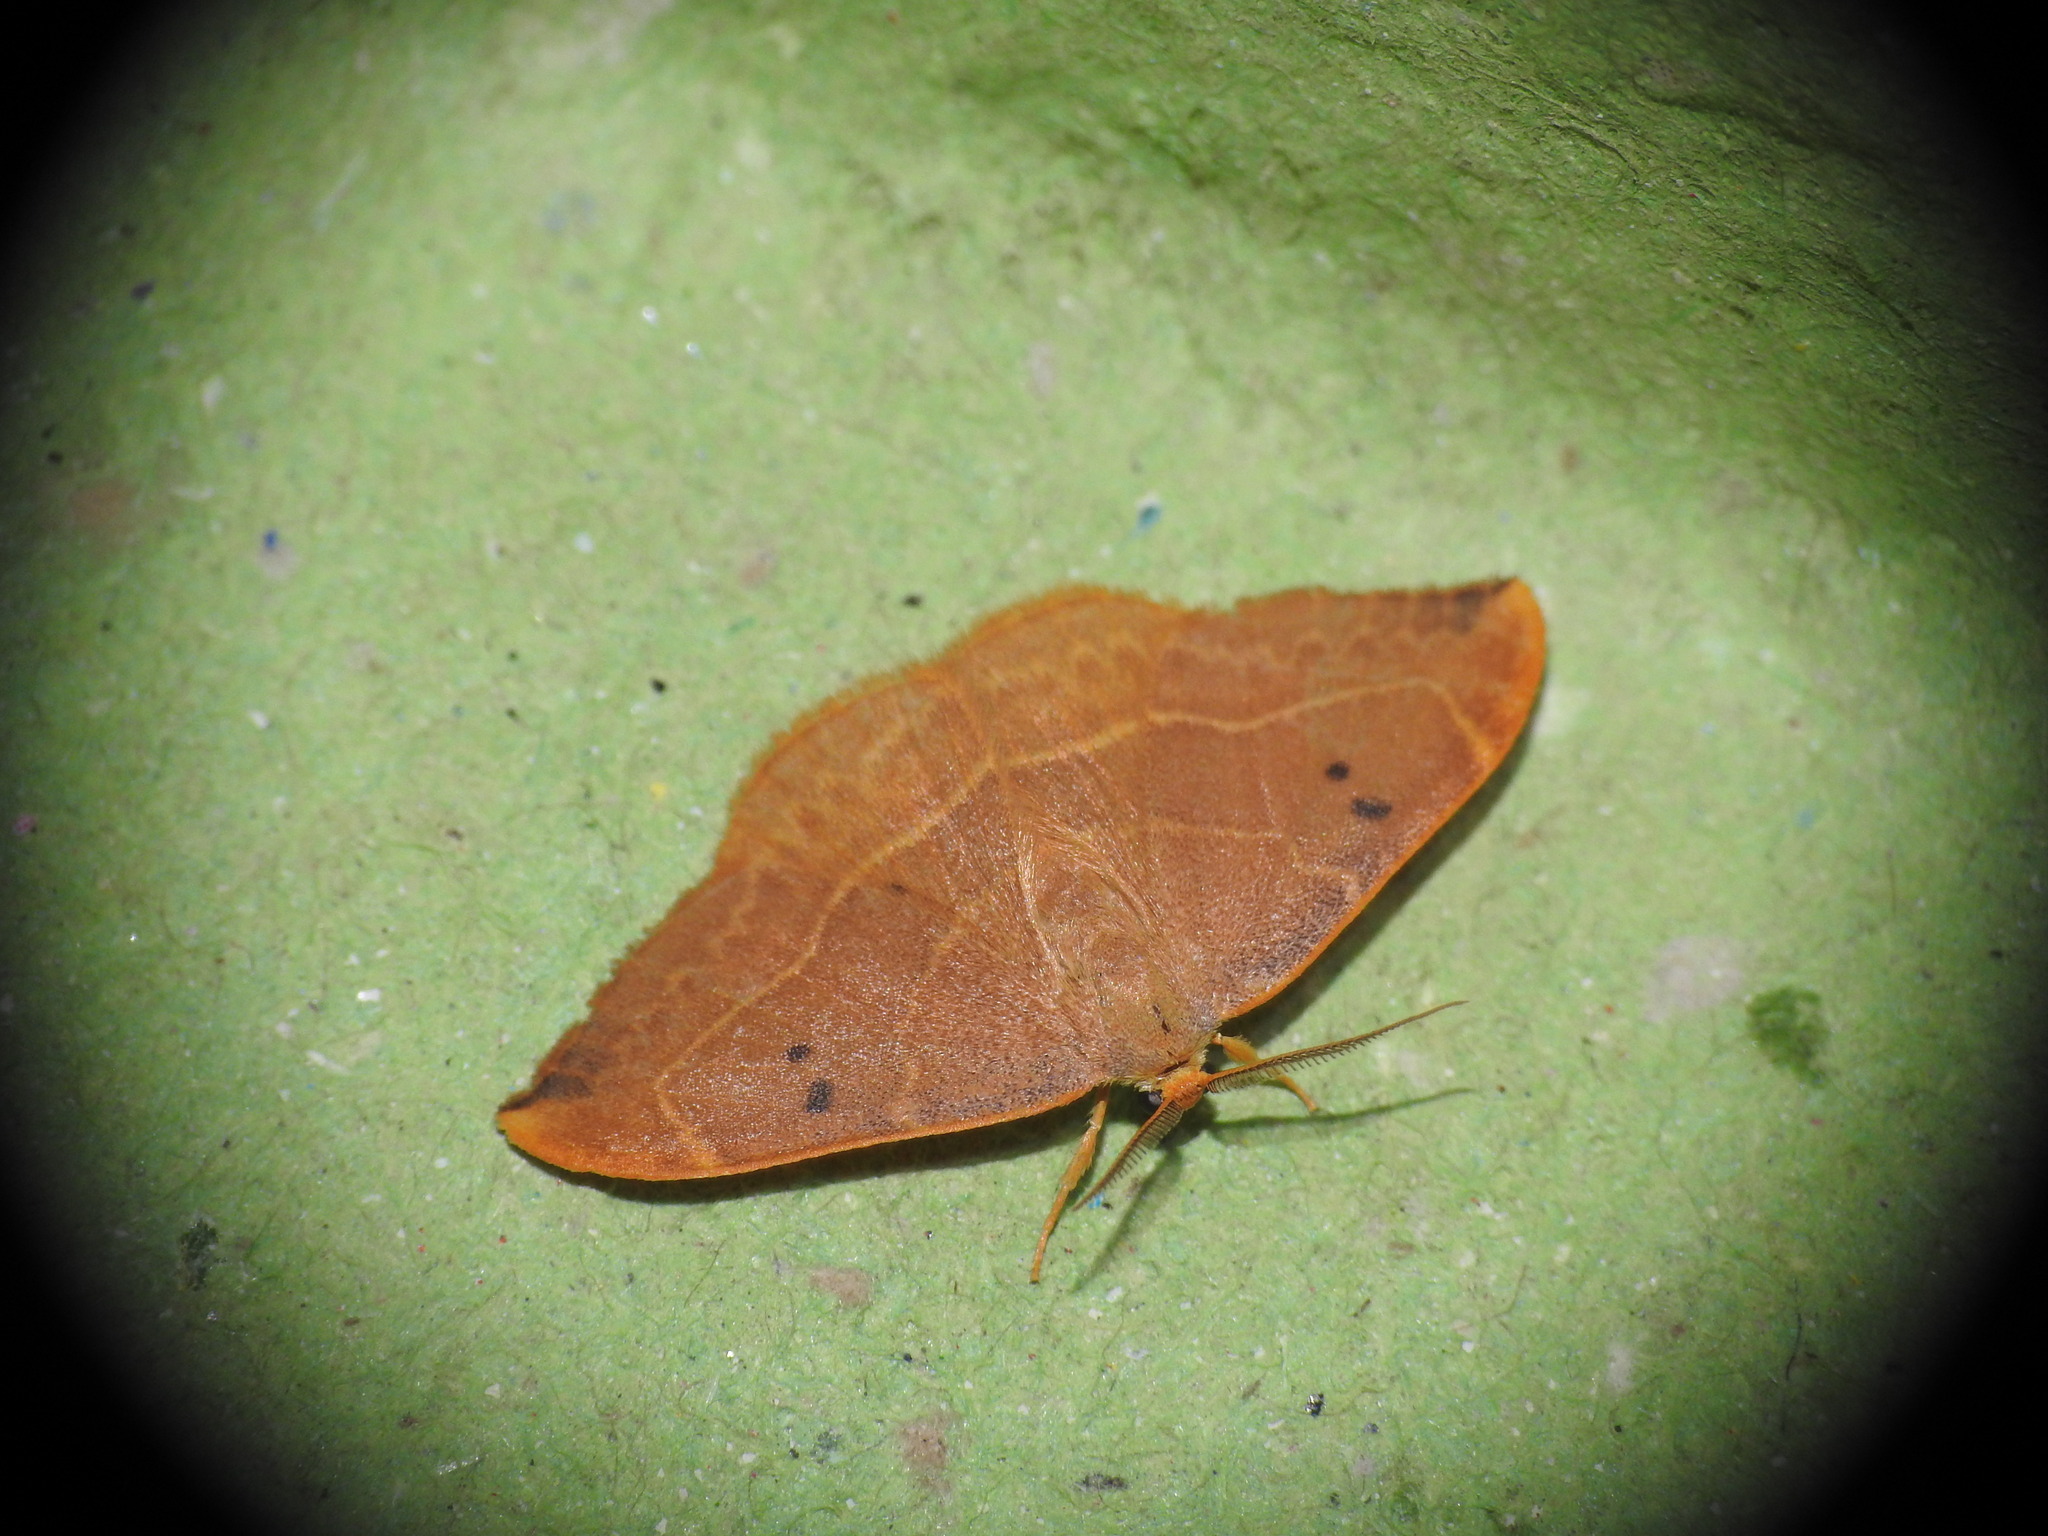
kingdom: Animalia
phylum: Arthropoda
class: Insecta
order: Lepidoptera
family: Drepanidae
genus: Watsonalla
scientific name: Watsonalla binaria
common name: Oak hook-tip
